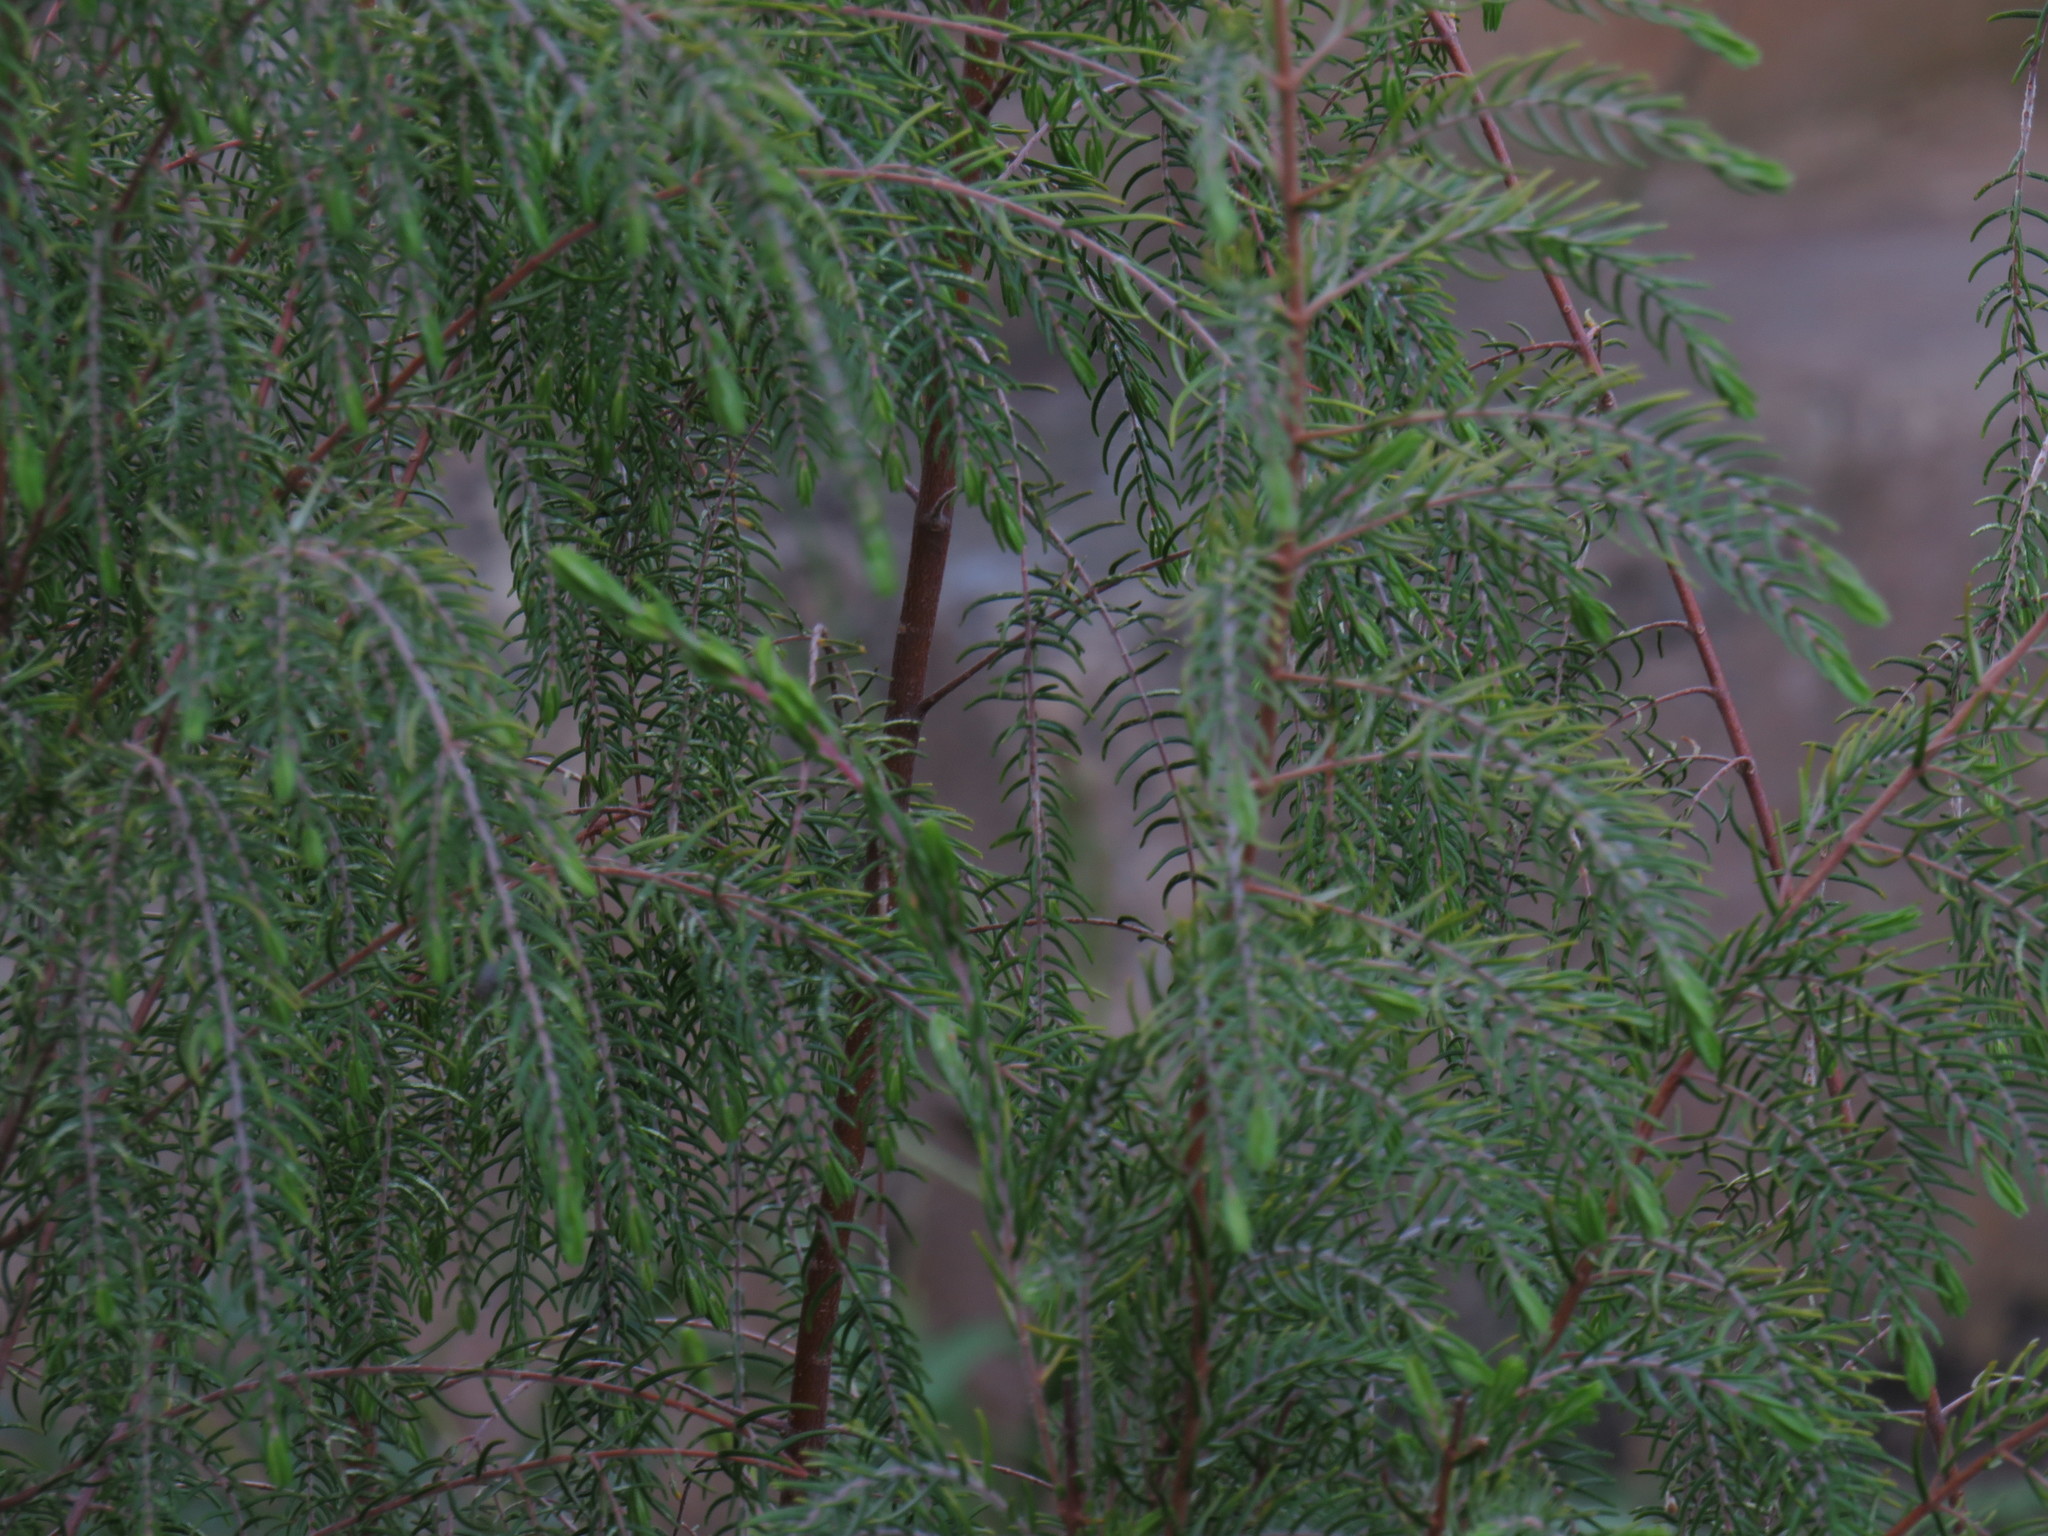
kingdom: Plantae
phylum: Tracheophyta
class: Magnoliopsida
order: Malvales
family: Thymelaeaceae
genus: Passerina
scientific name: Passerina falcifolia
